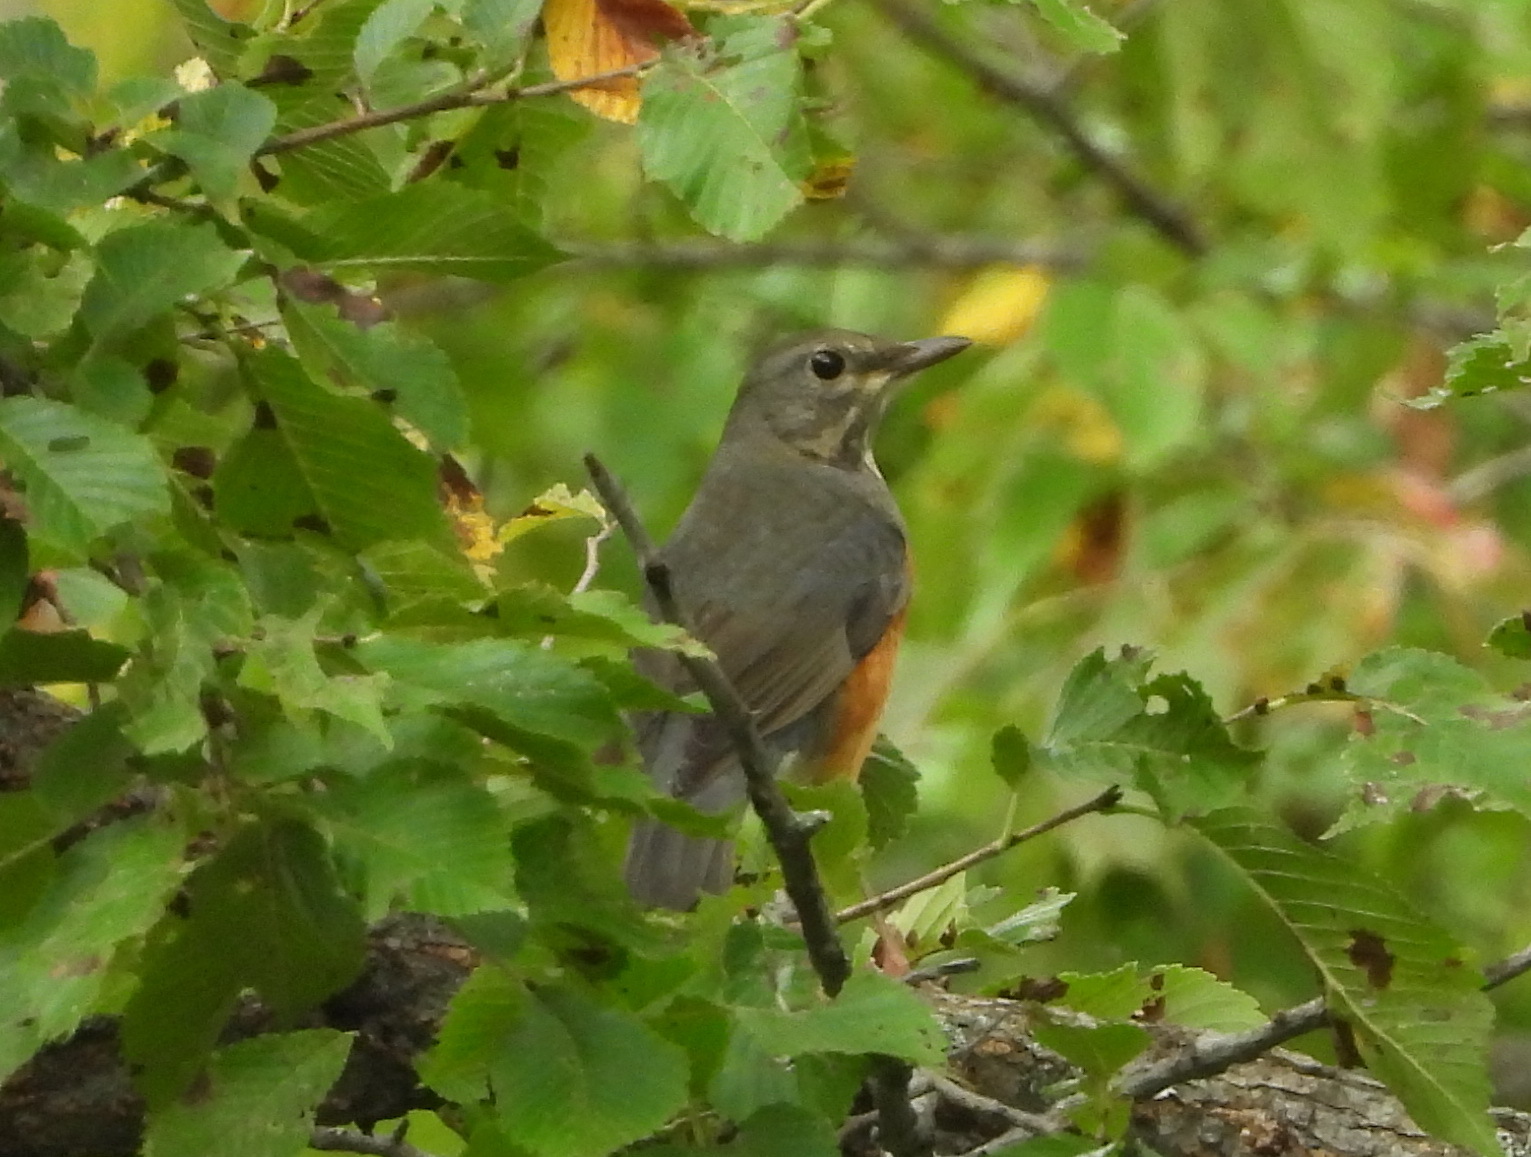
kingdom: Animalia
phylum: Chordata
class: Aves
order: Passeriformes
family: Turdidae
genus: Turdus
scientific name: Turdus hortulorum
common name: Grey-backed thrush
